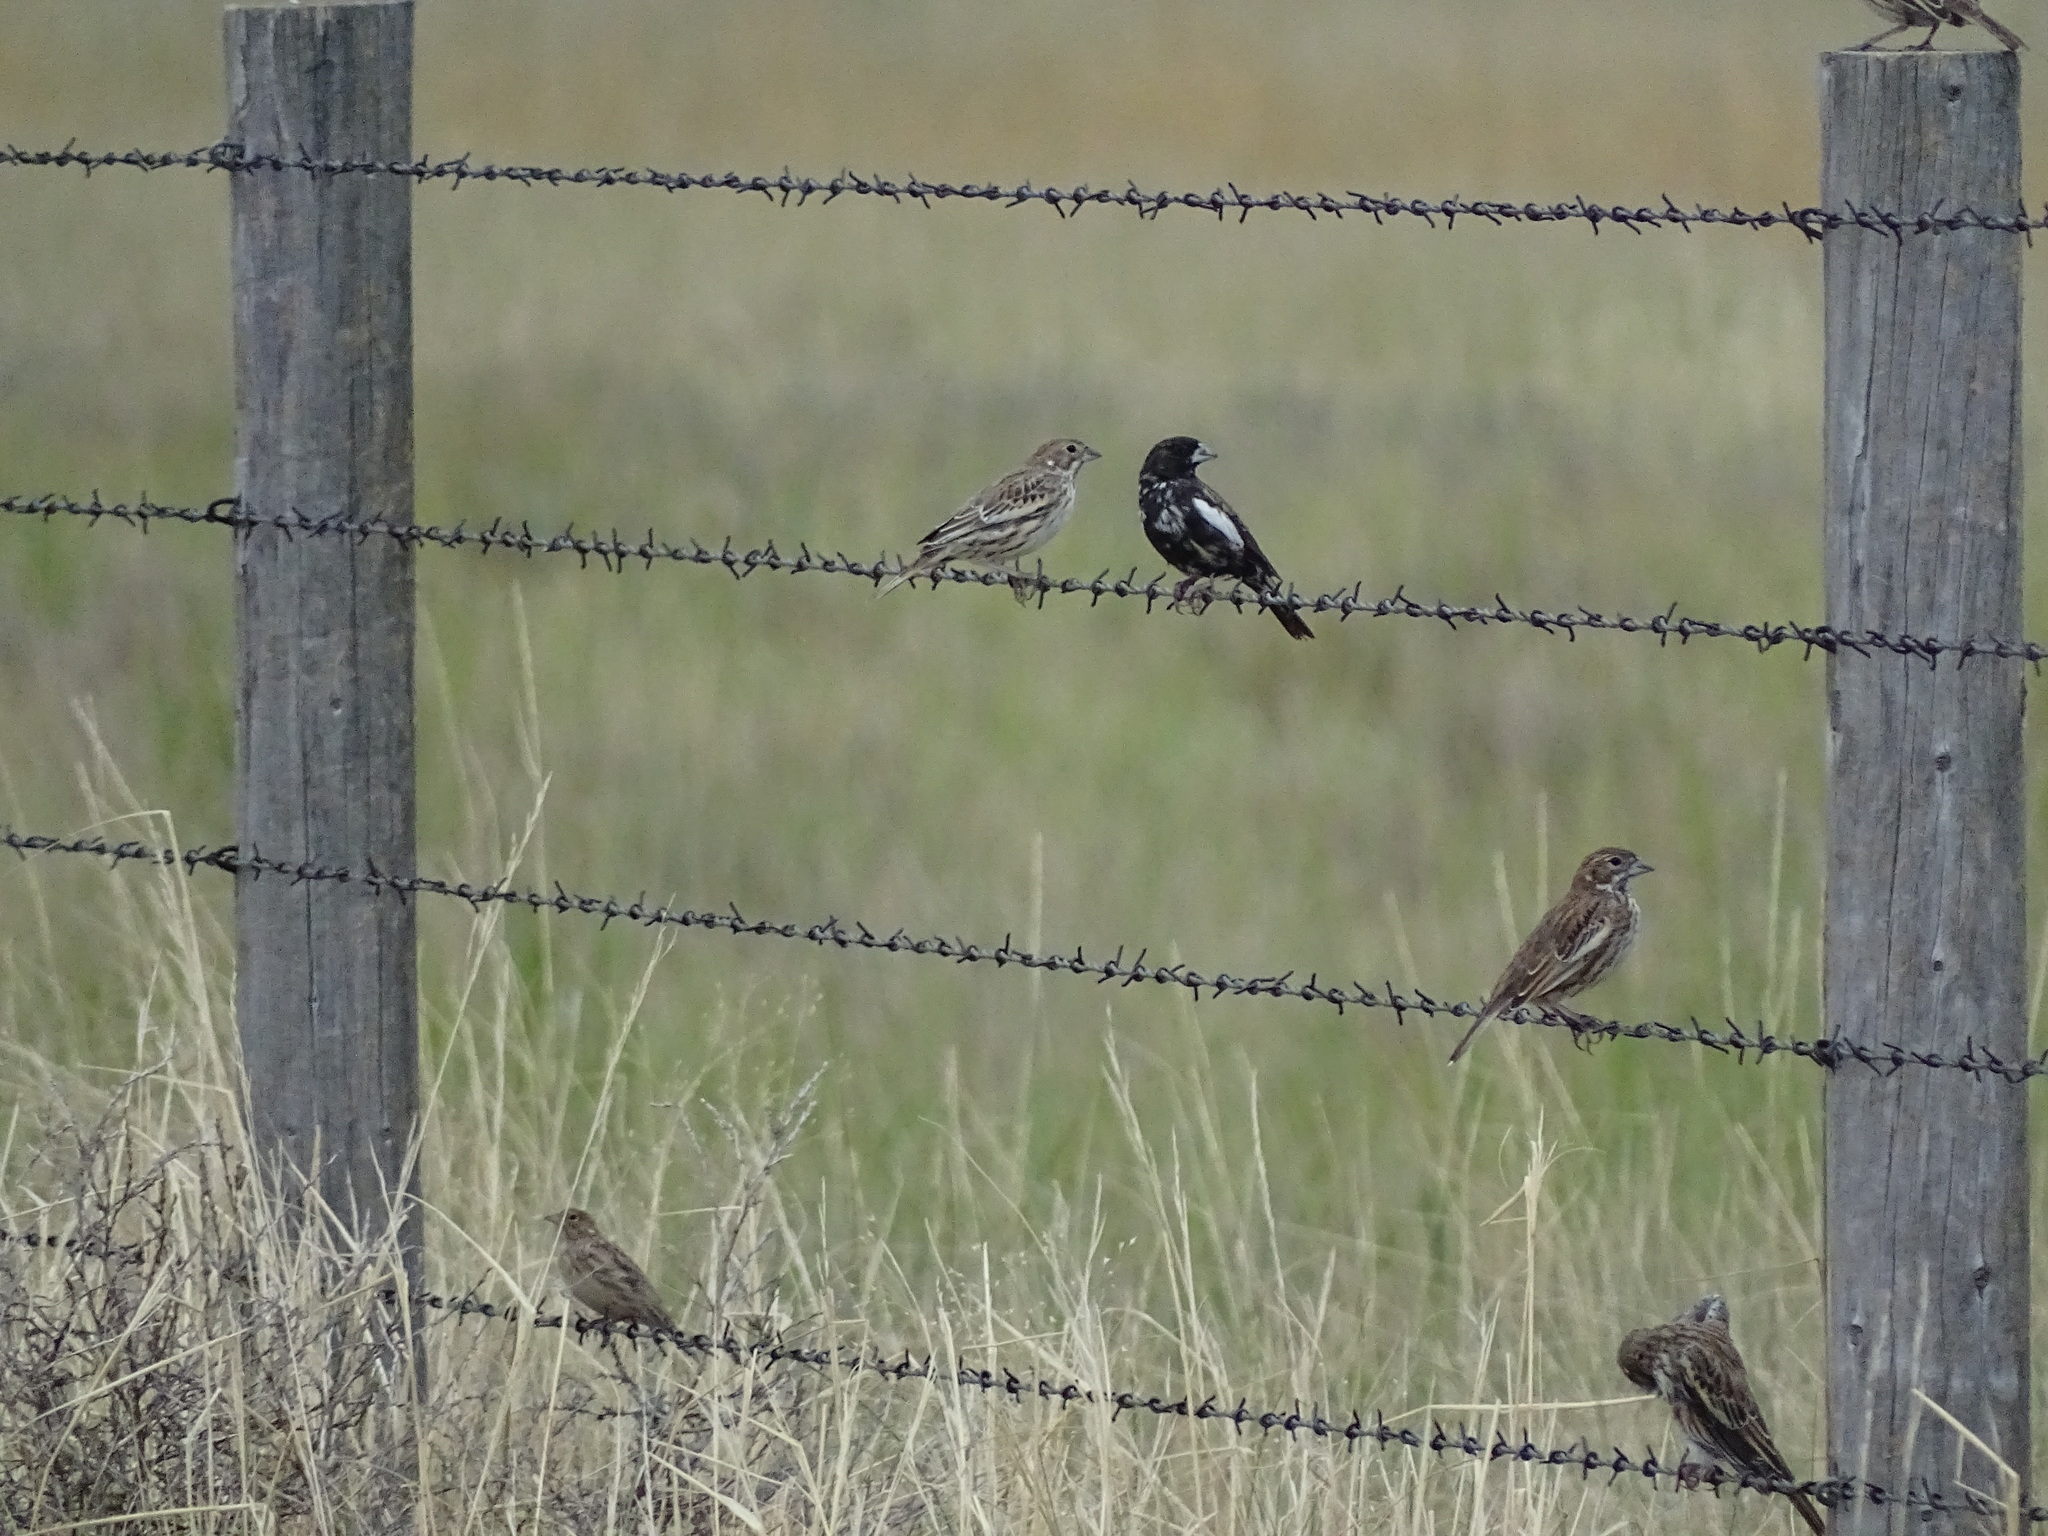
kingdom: Animalia
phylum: Chordata
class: Aves
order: Passeriformes
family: Passerellidae
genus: Calamospiza
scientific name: Calamospiza melanocorys
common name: Lark bunting
